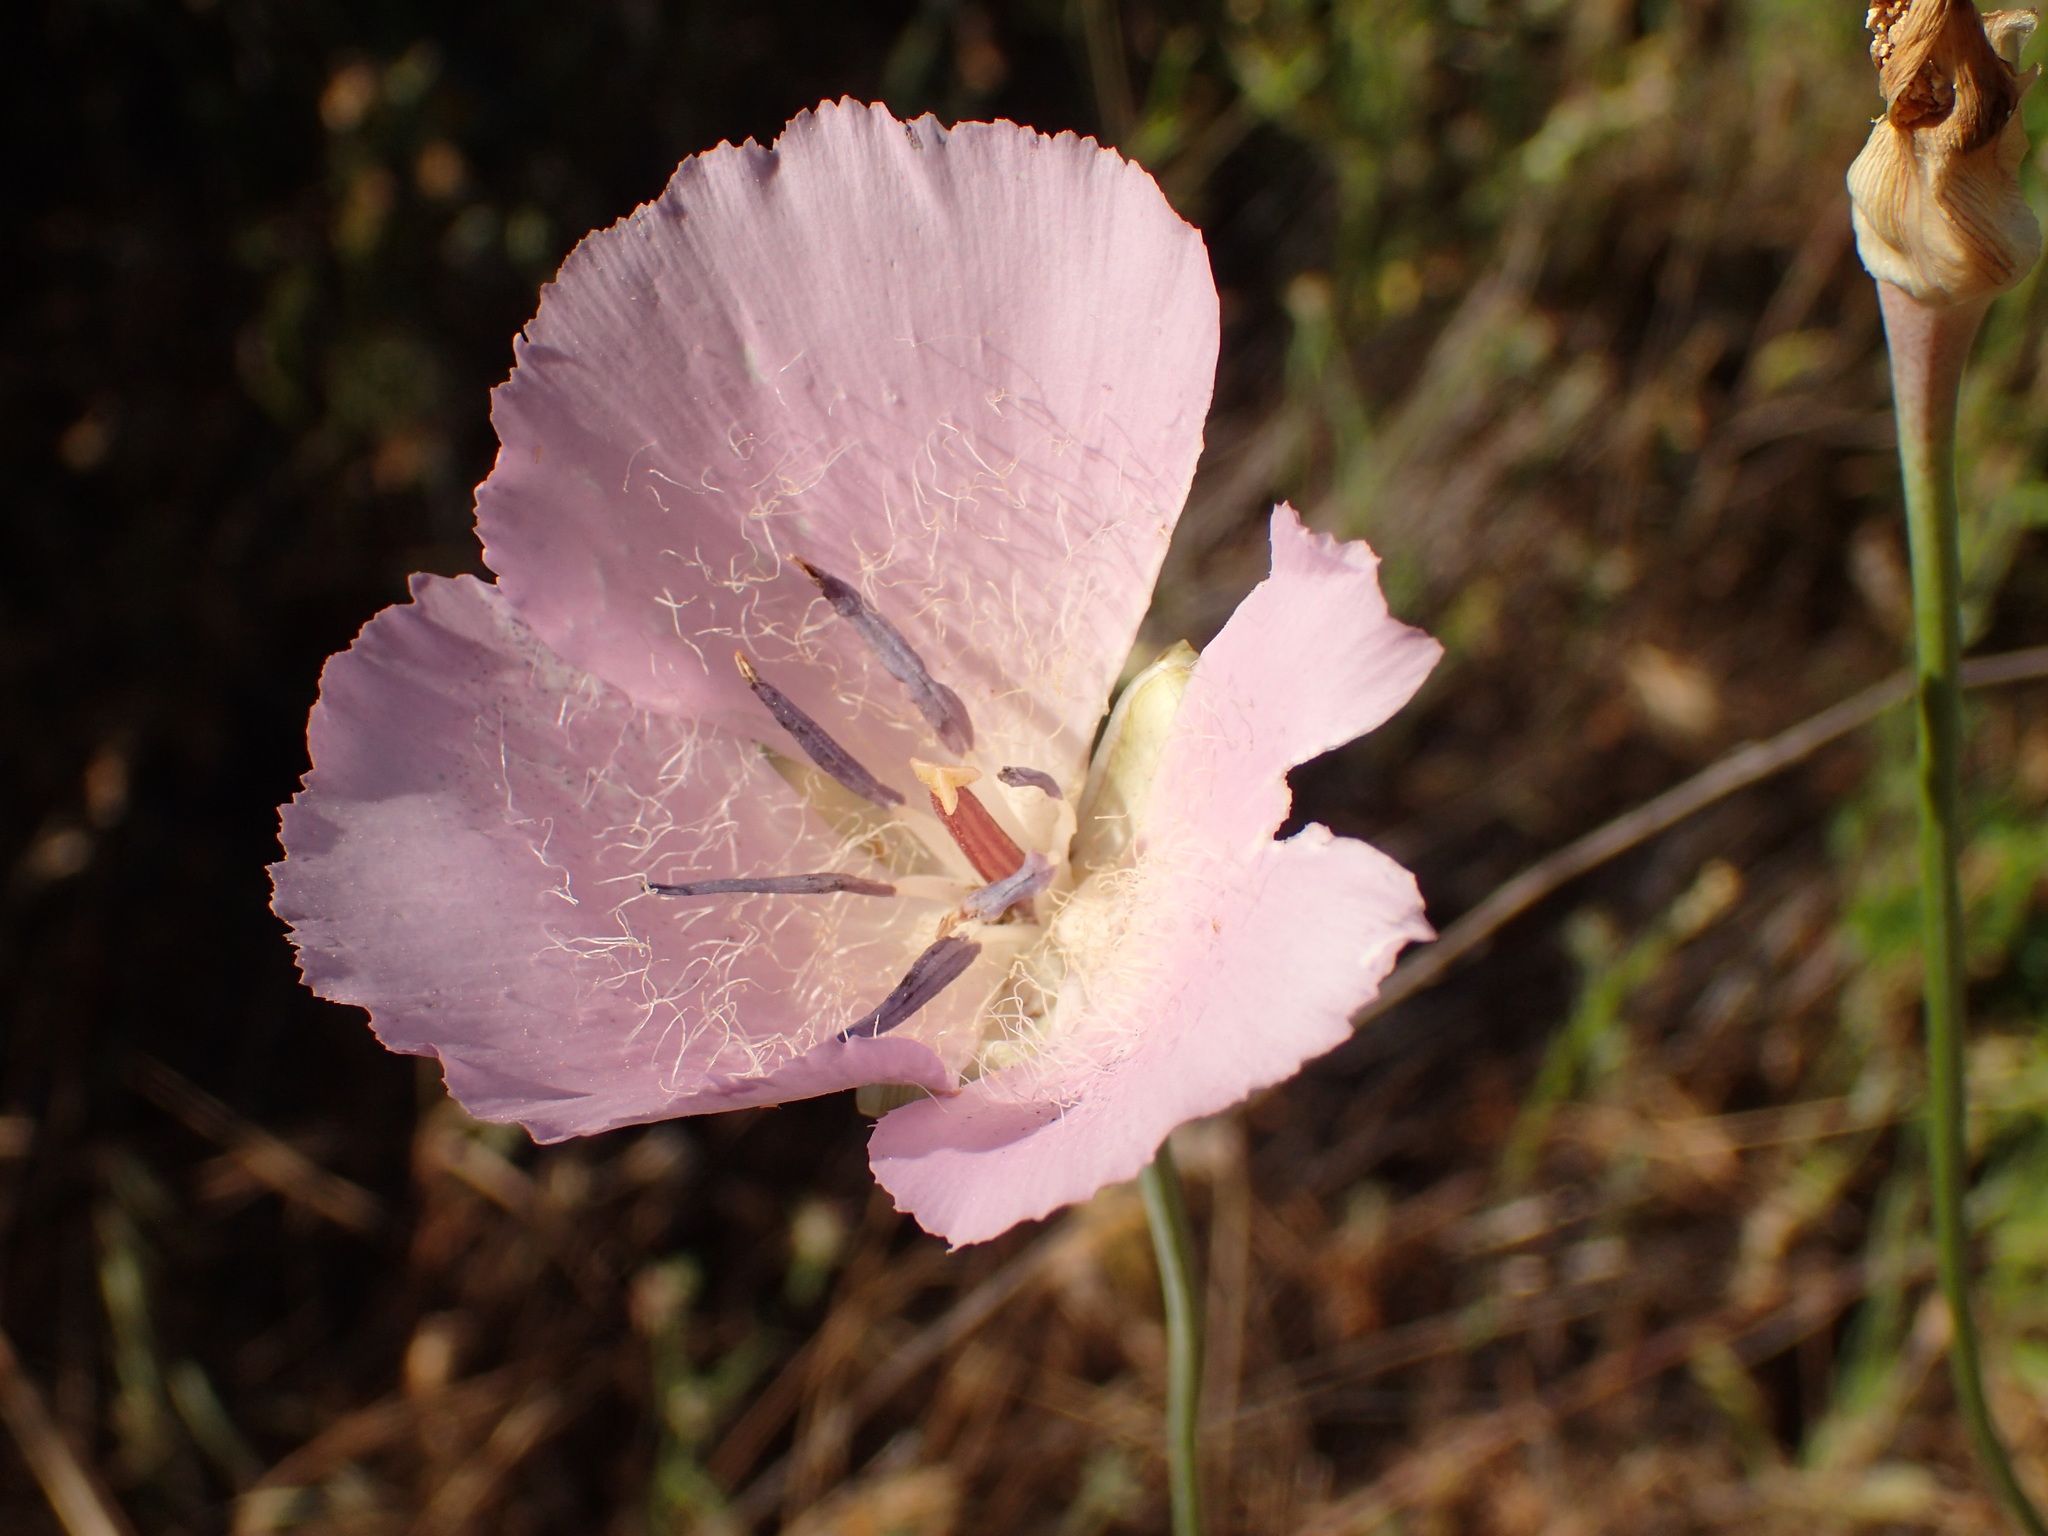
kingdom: Plantae
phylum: Tracheophyta
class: Liliopsida
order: Liliales
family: Liliaceae
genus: Calochortus
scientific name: Calochortus splendens
